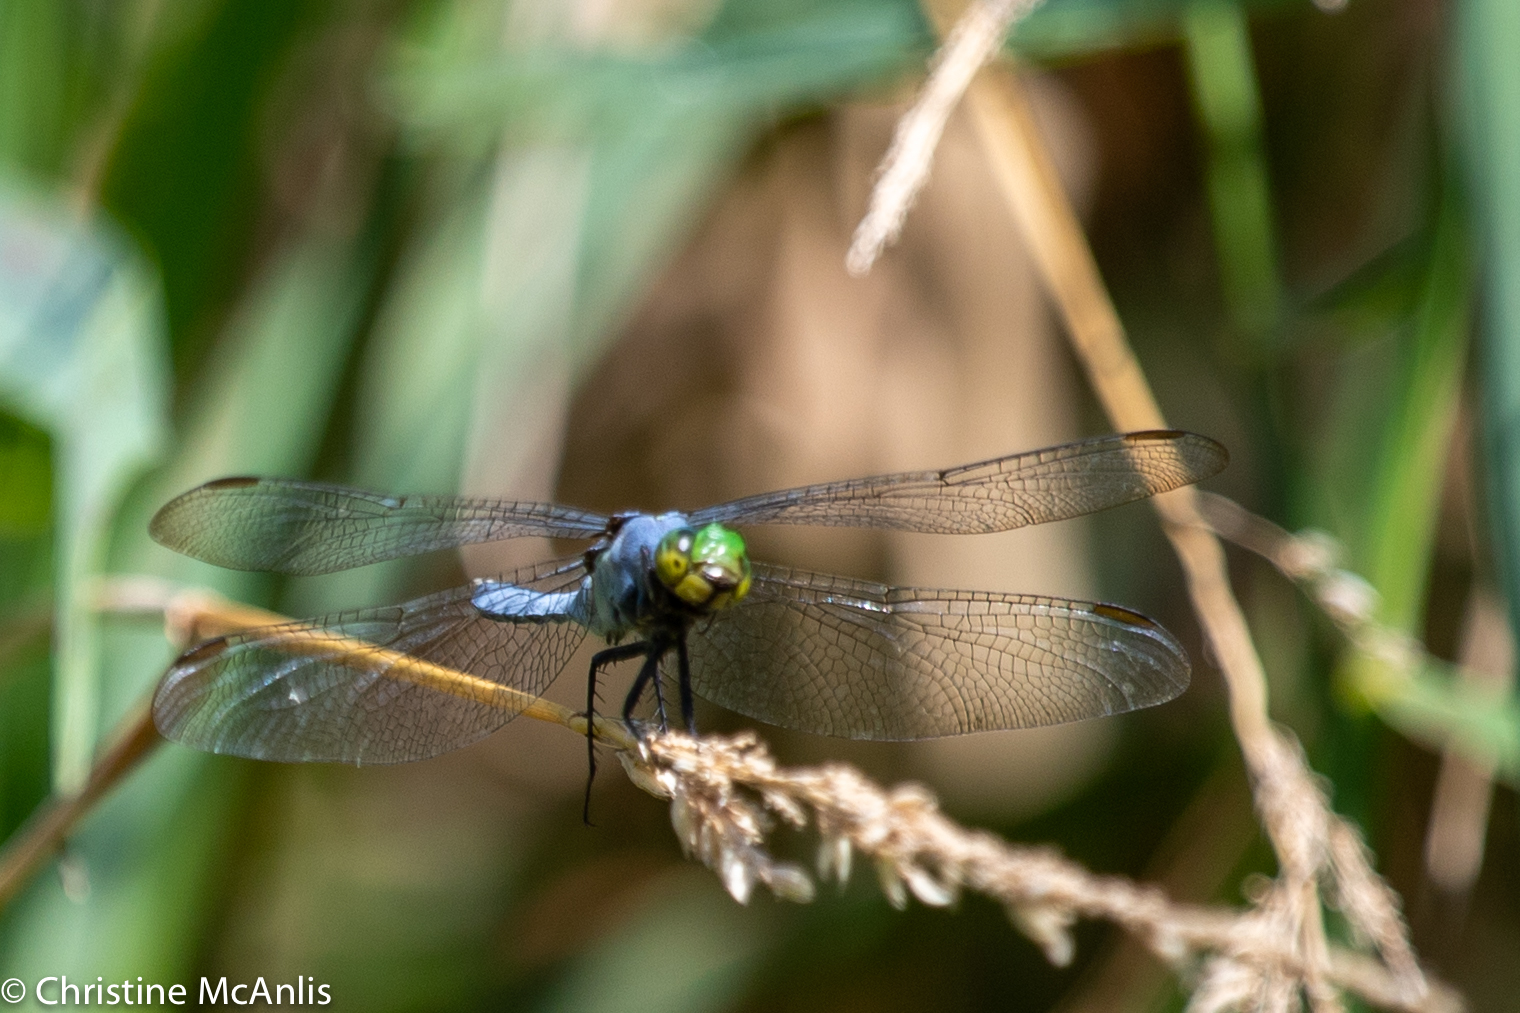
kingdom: Animalia
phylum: Arthropoda
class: Insecta
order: Odonata
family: Libellulidae
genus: Erythemis
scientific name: Erythemis simplicicollis
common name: Eastern pondhawk
